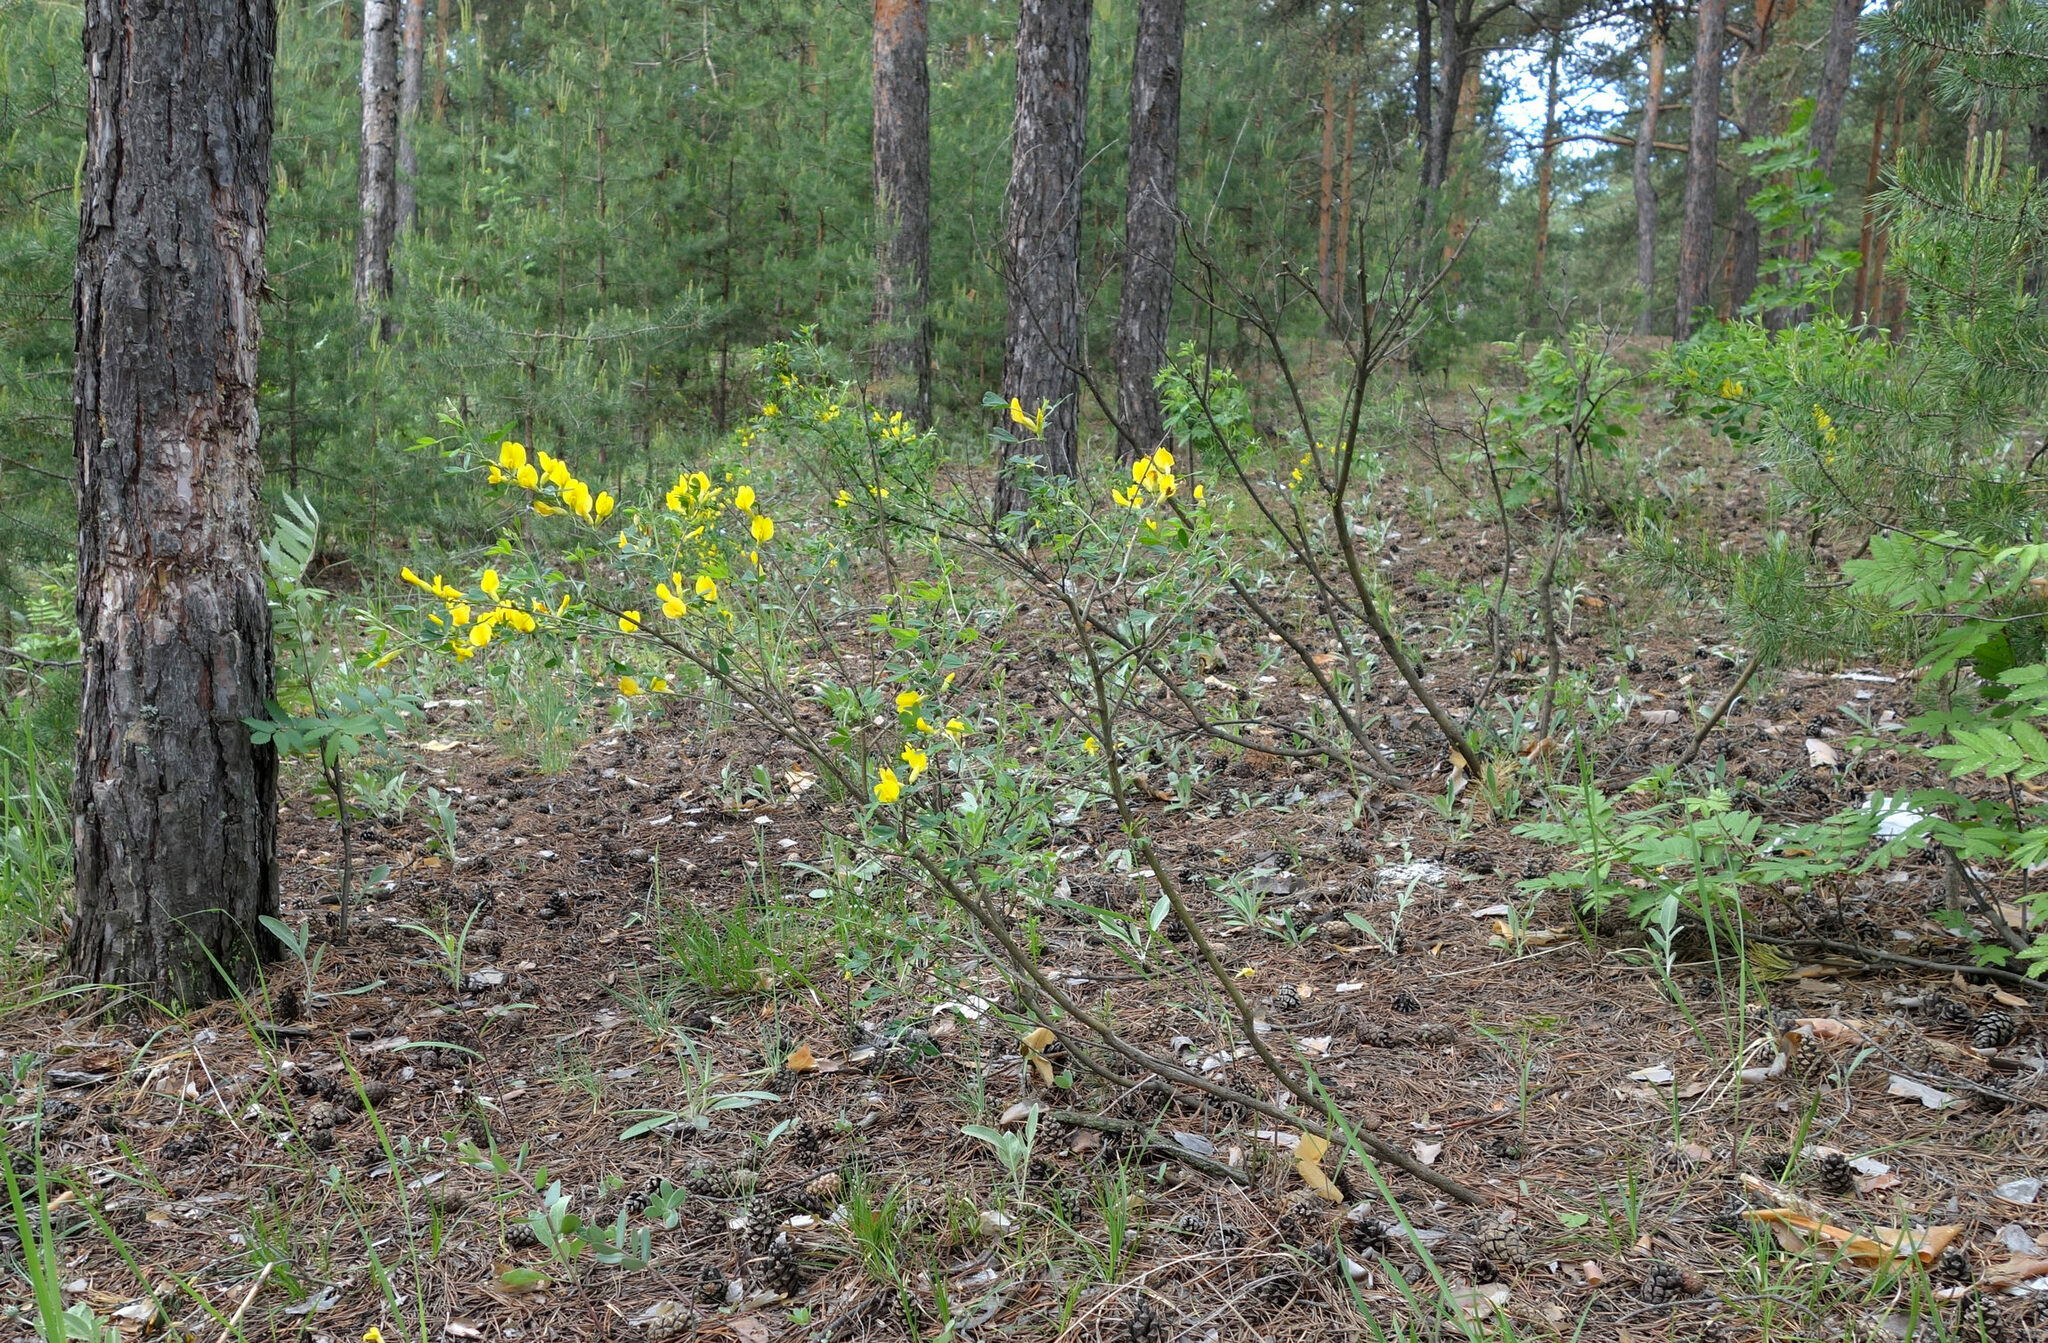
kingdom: Plantae
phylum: Tracheophyta
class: Magnoliopsida
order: Fabales
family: Fabaceae
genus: Chamaecytisus
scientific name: Chamaecytisus ruthenicus
